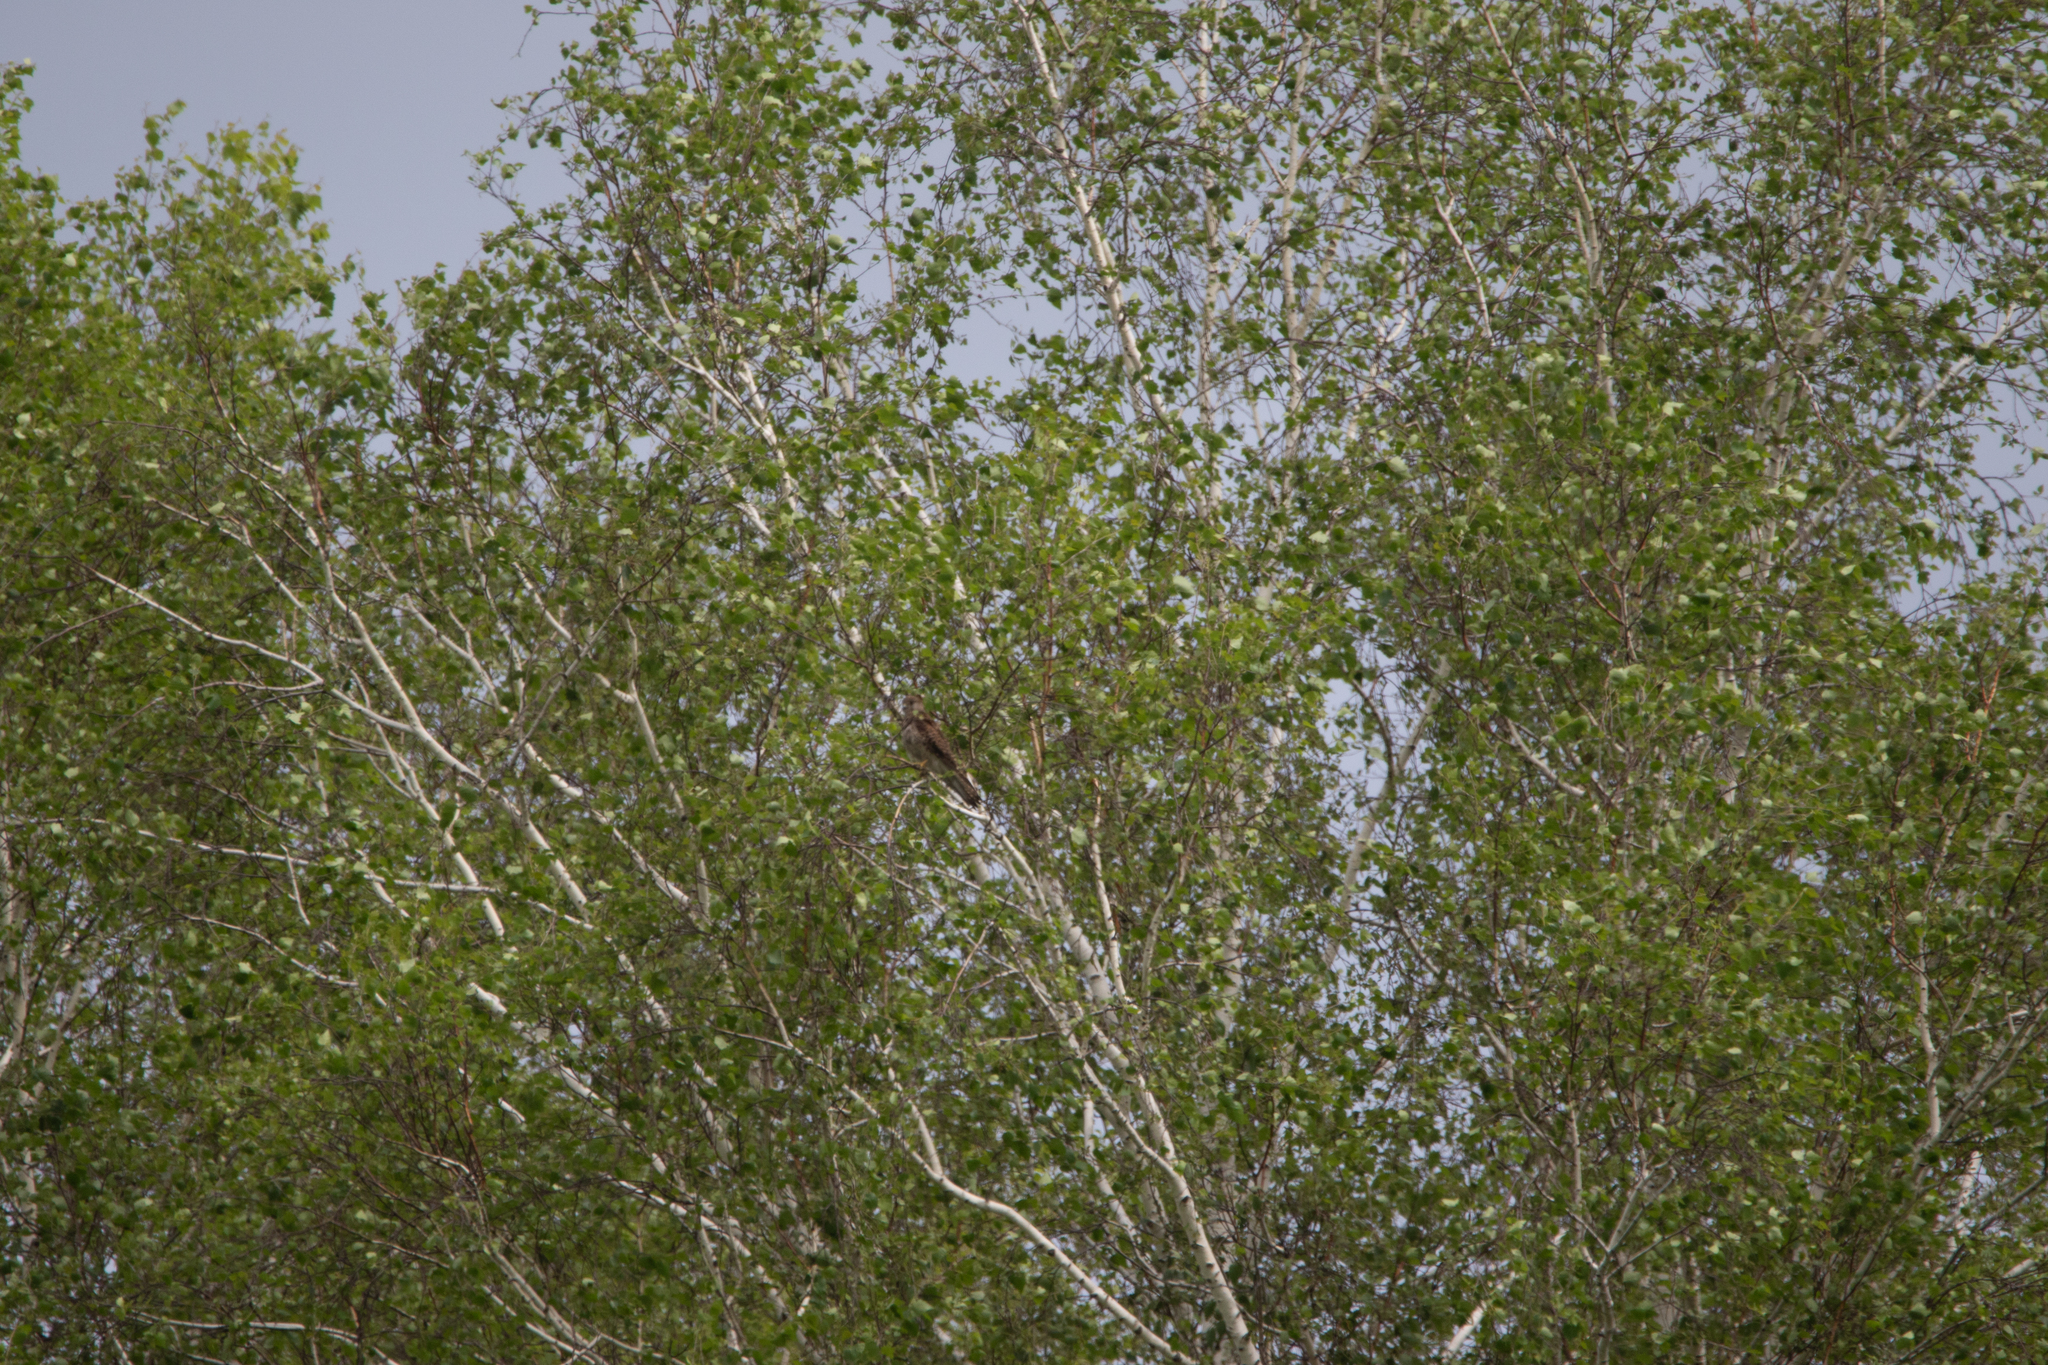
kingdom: Animalia
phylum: Chordata
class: Aves
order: Falconiformes
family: Falconidae
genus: Falco
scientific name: Falco tinnunculus
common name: Common kestrel
